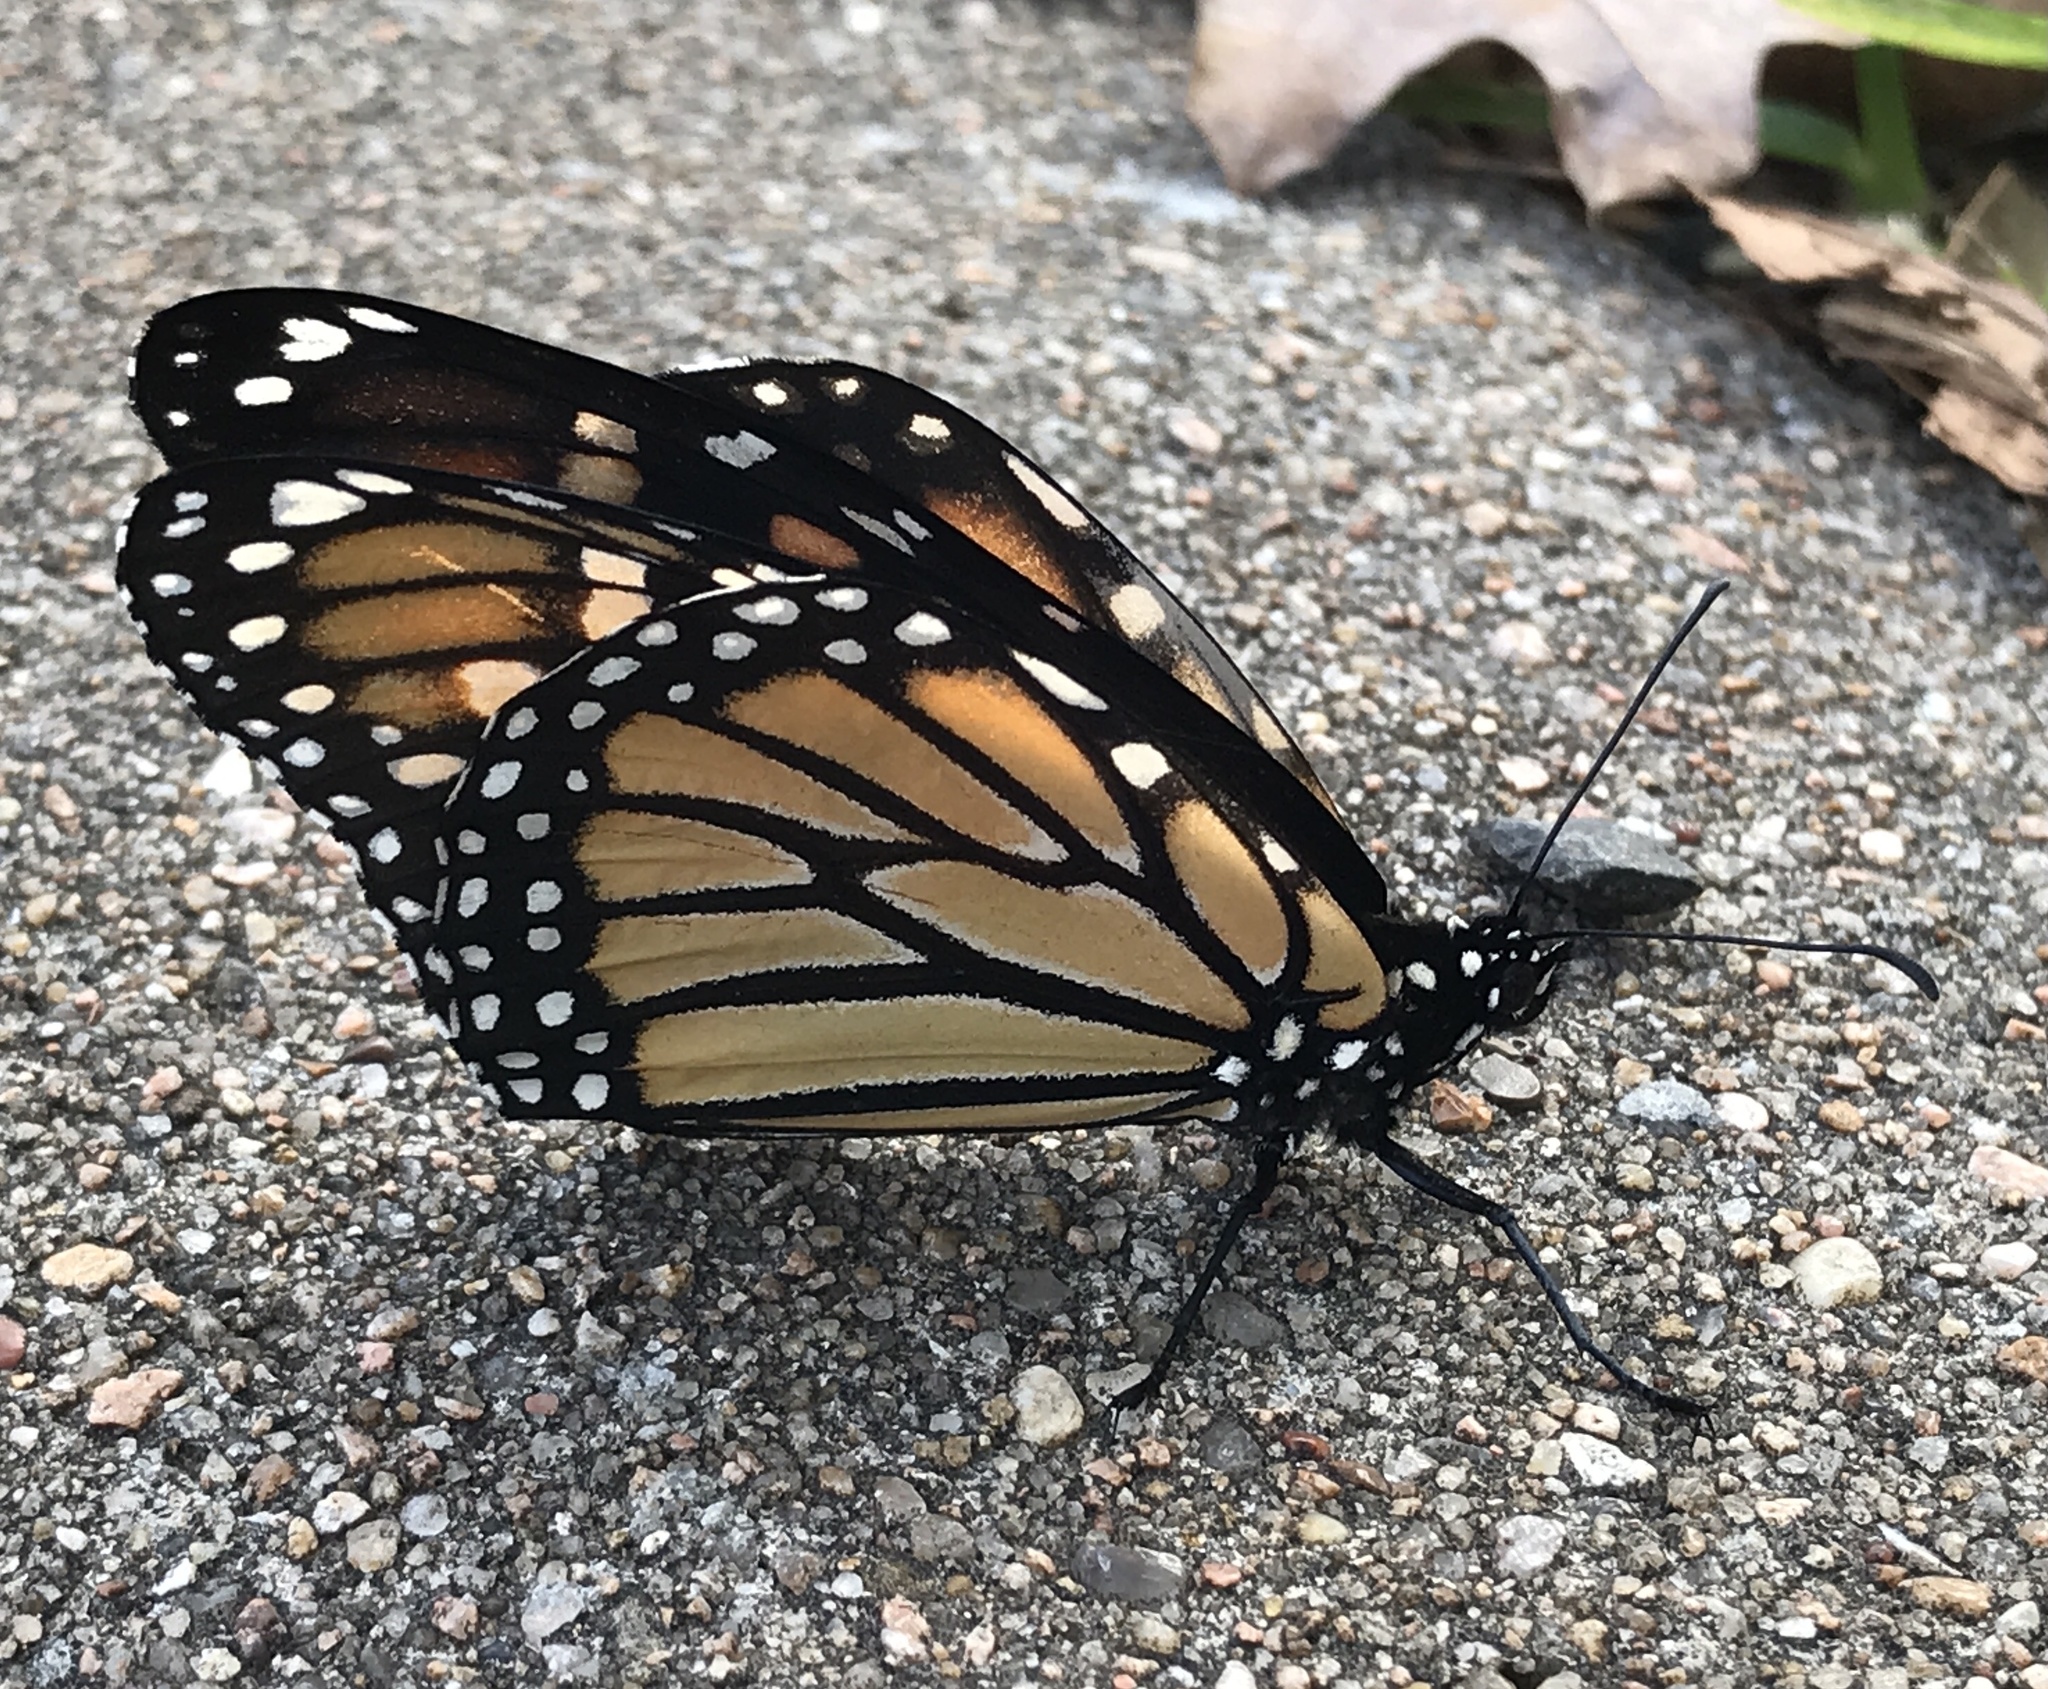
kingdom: Animalia
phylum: Arthropoda
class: Insecta
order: Lepidoptera
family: Nymphalidae
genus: Danaus
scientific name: Danaus plexippus
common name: Monarch
